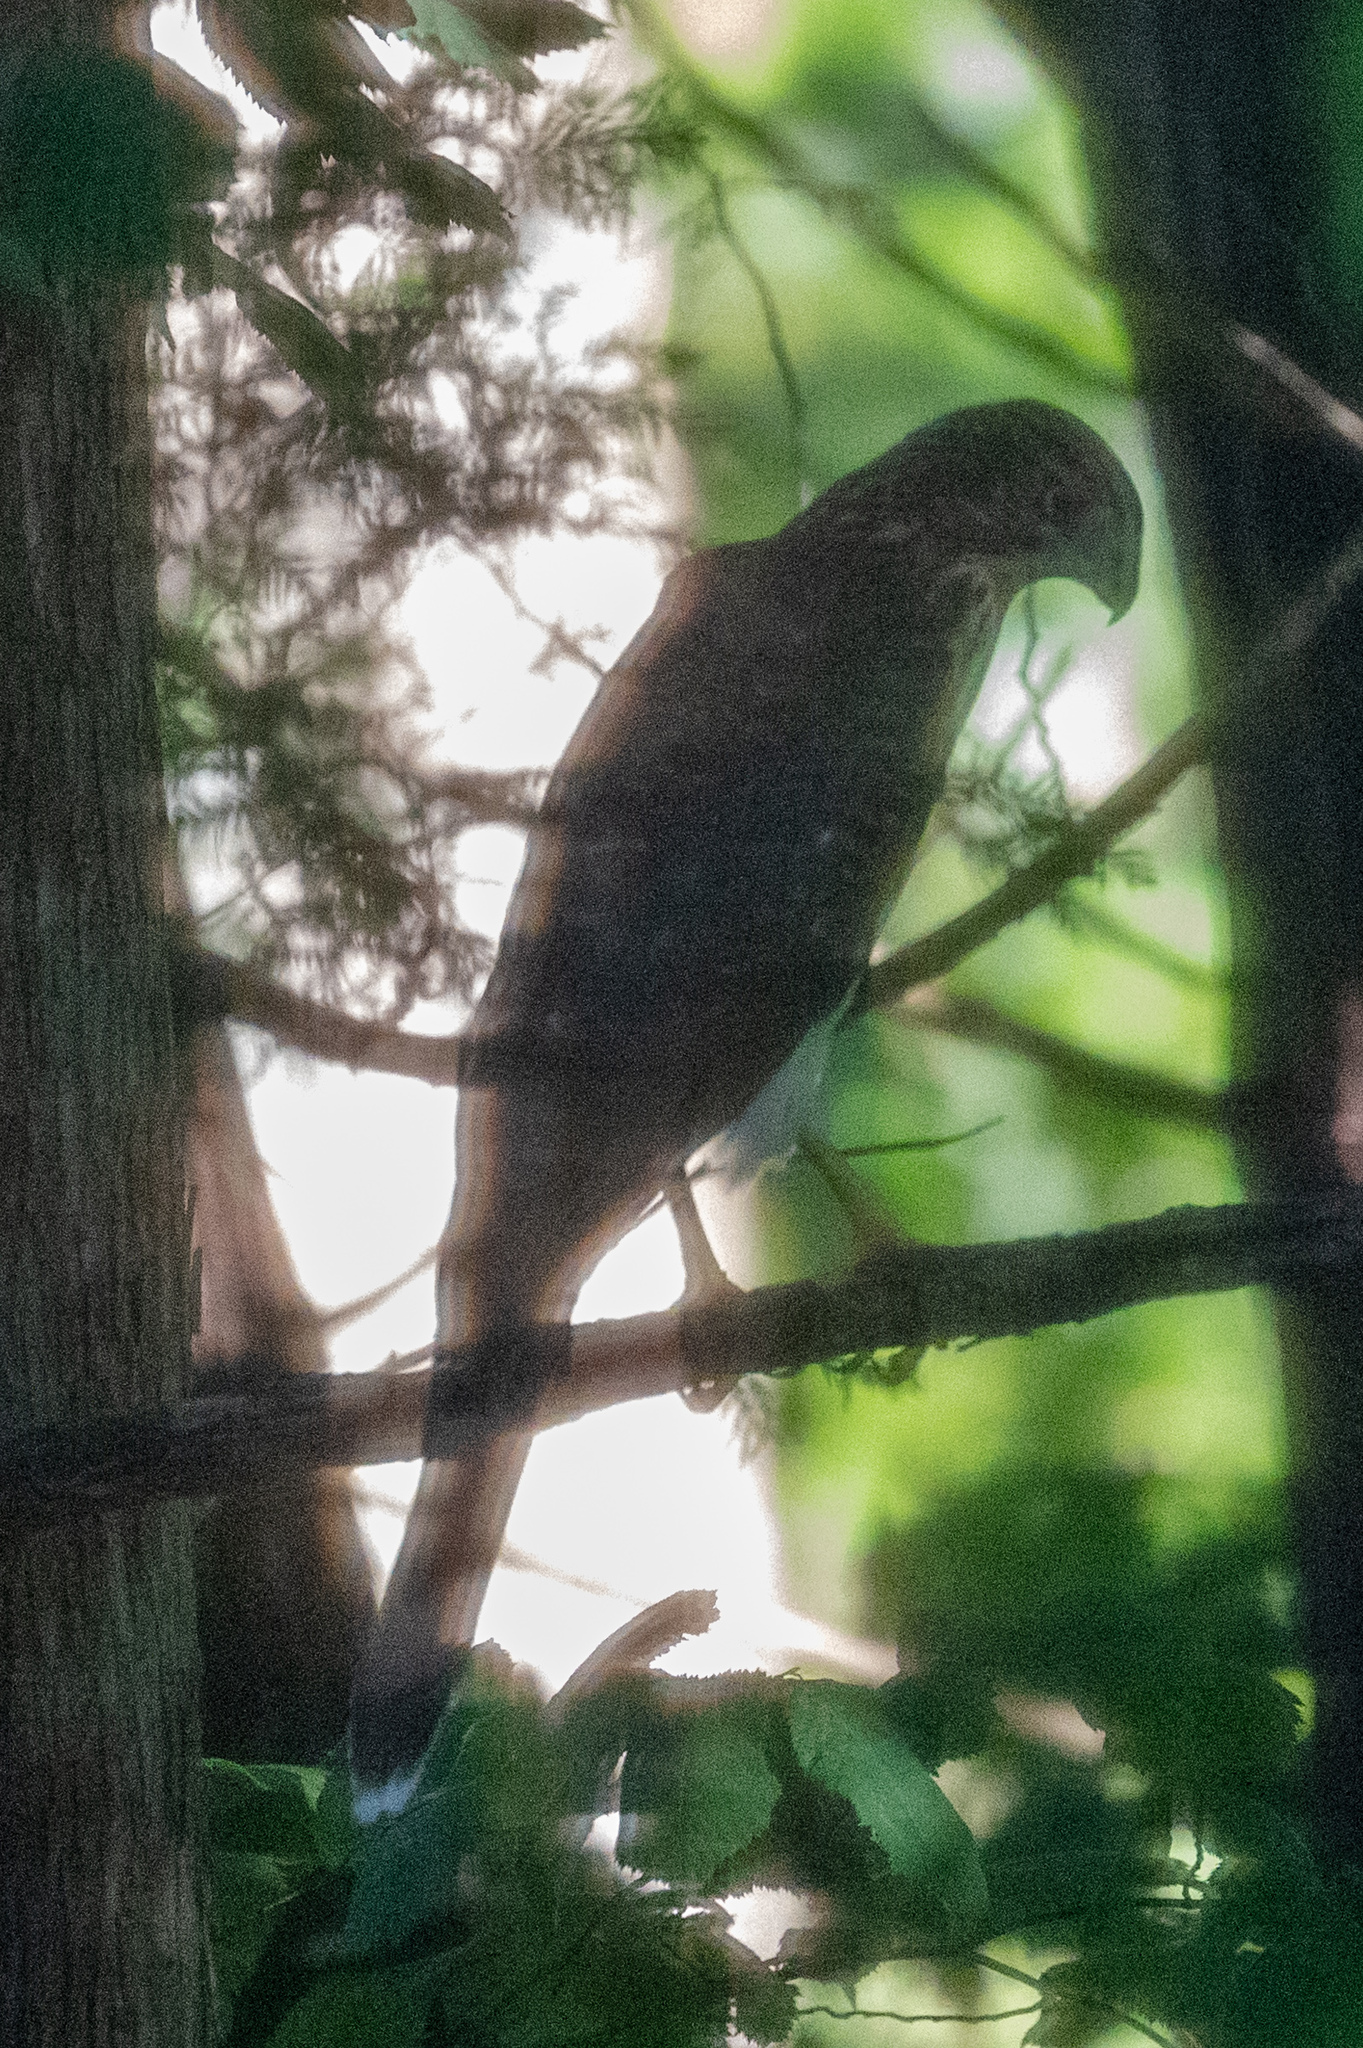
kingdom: Animalia
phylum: Chordata
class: Aves
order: Accipitriformes
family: Accipitridae
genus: Accipiter
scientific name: Accipiter cooperii
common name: Cooper's hawk
